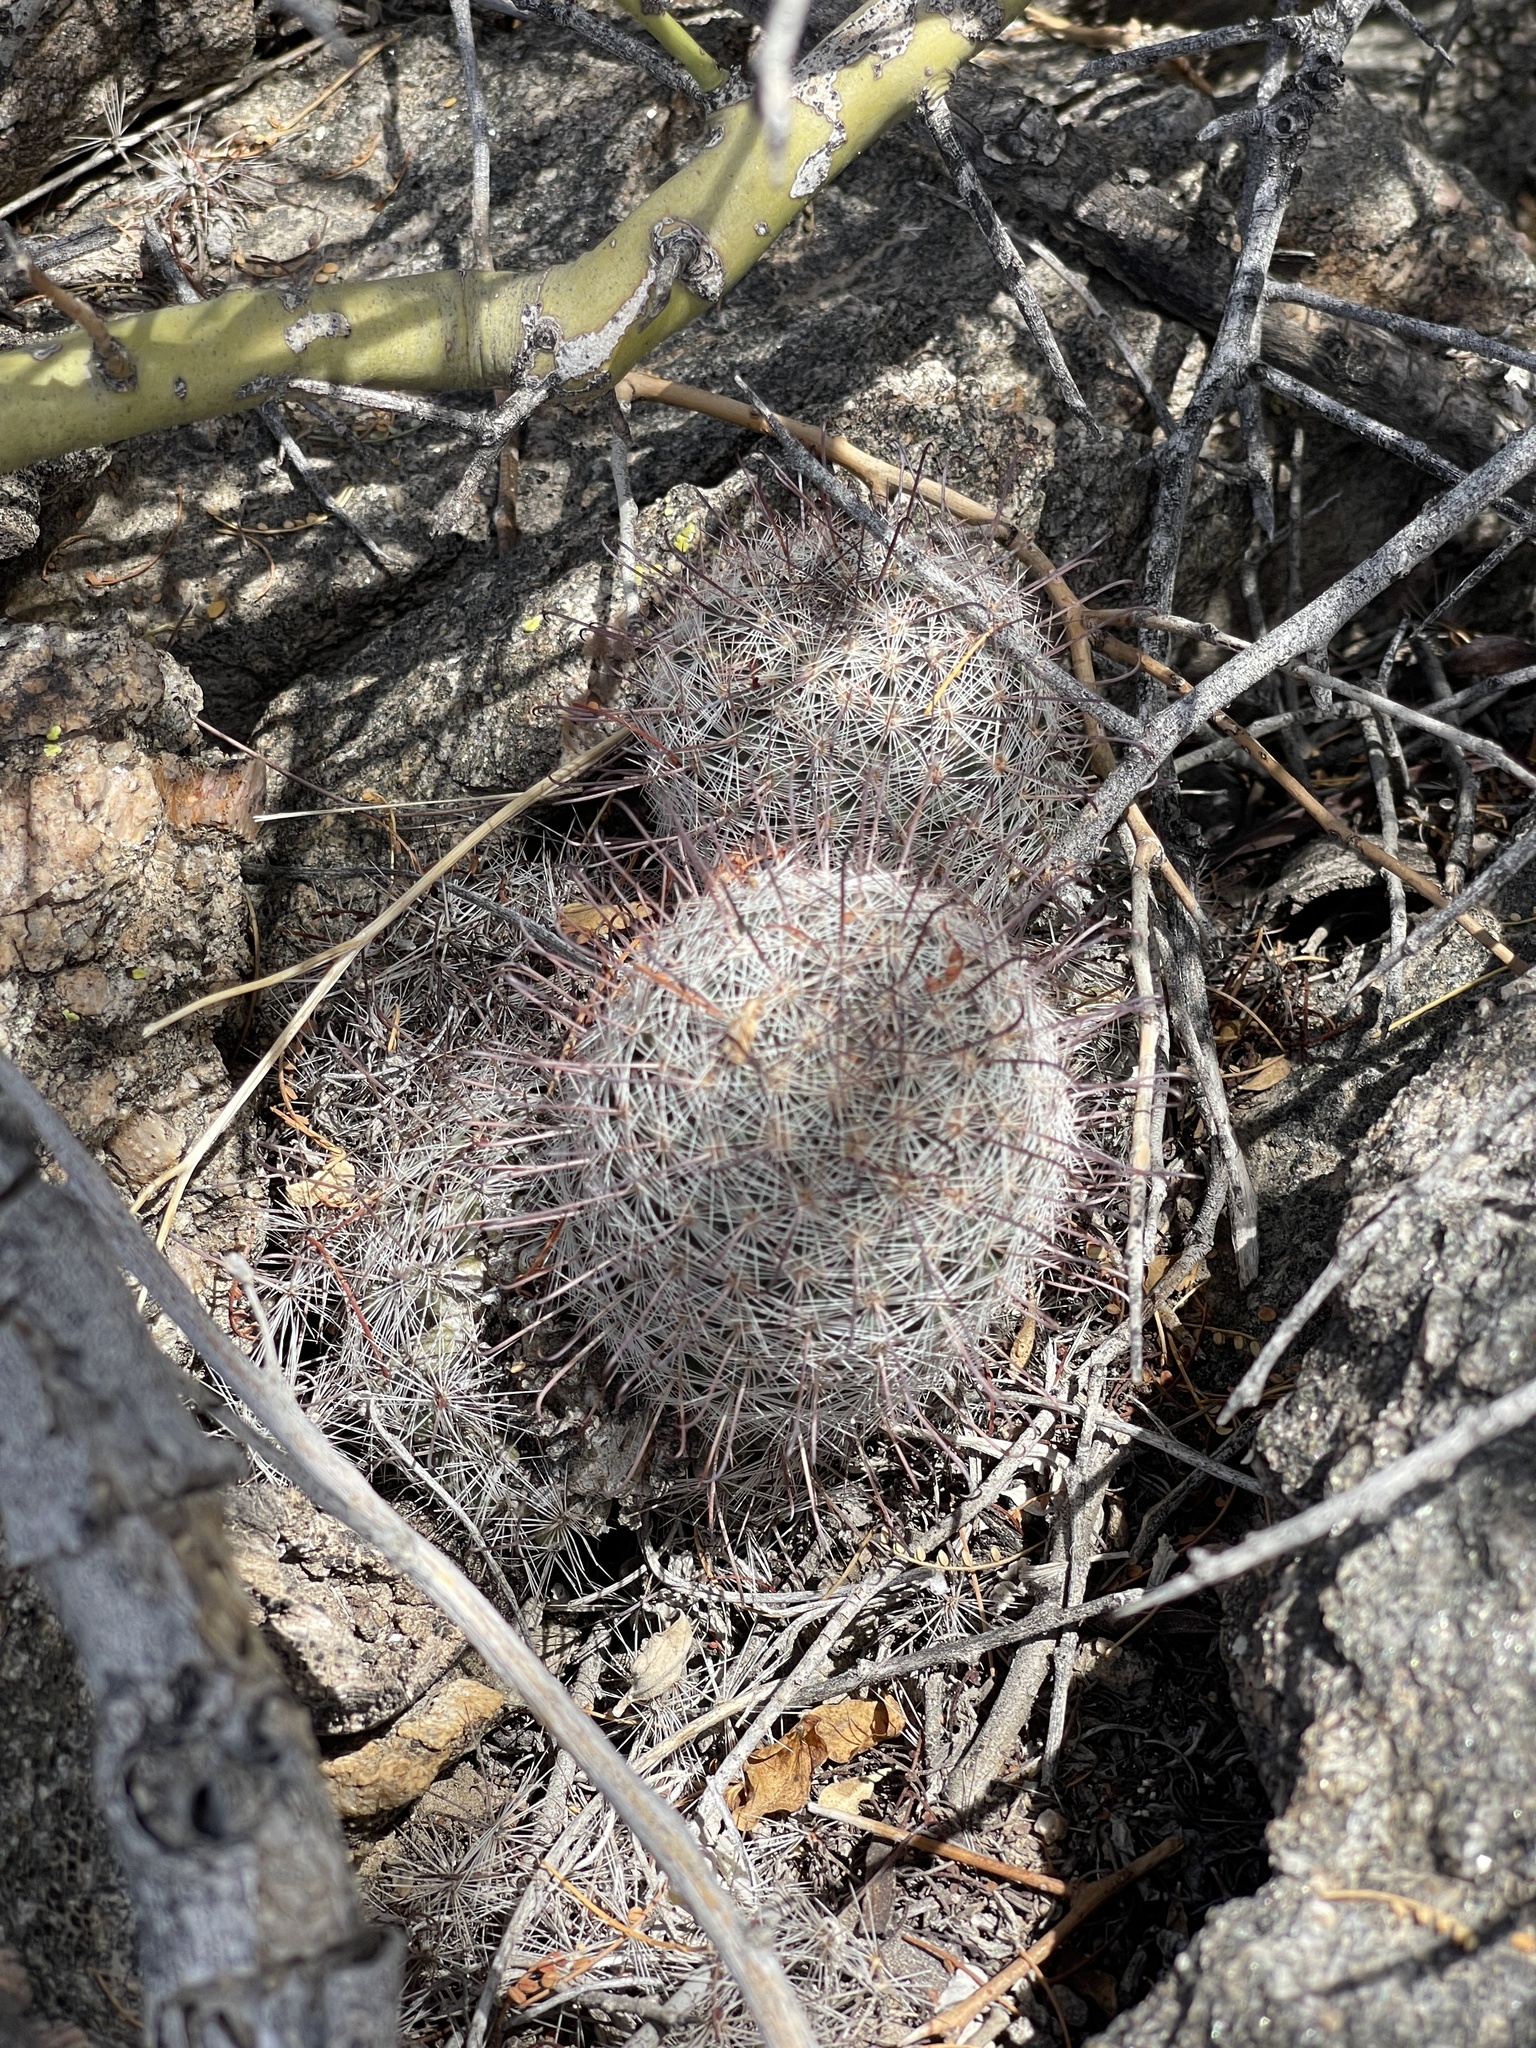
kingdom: Plantae
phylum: Tracheophyta
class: Magnoliopsida
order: Caryophyllales
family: Cactaceae
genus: Cochemiea
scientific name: Cochemiea grahamii
